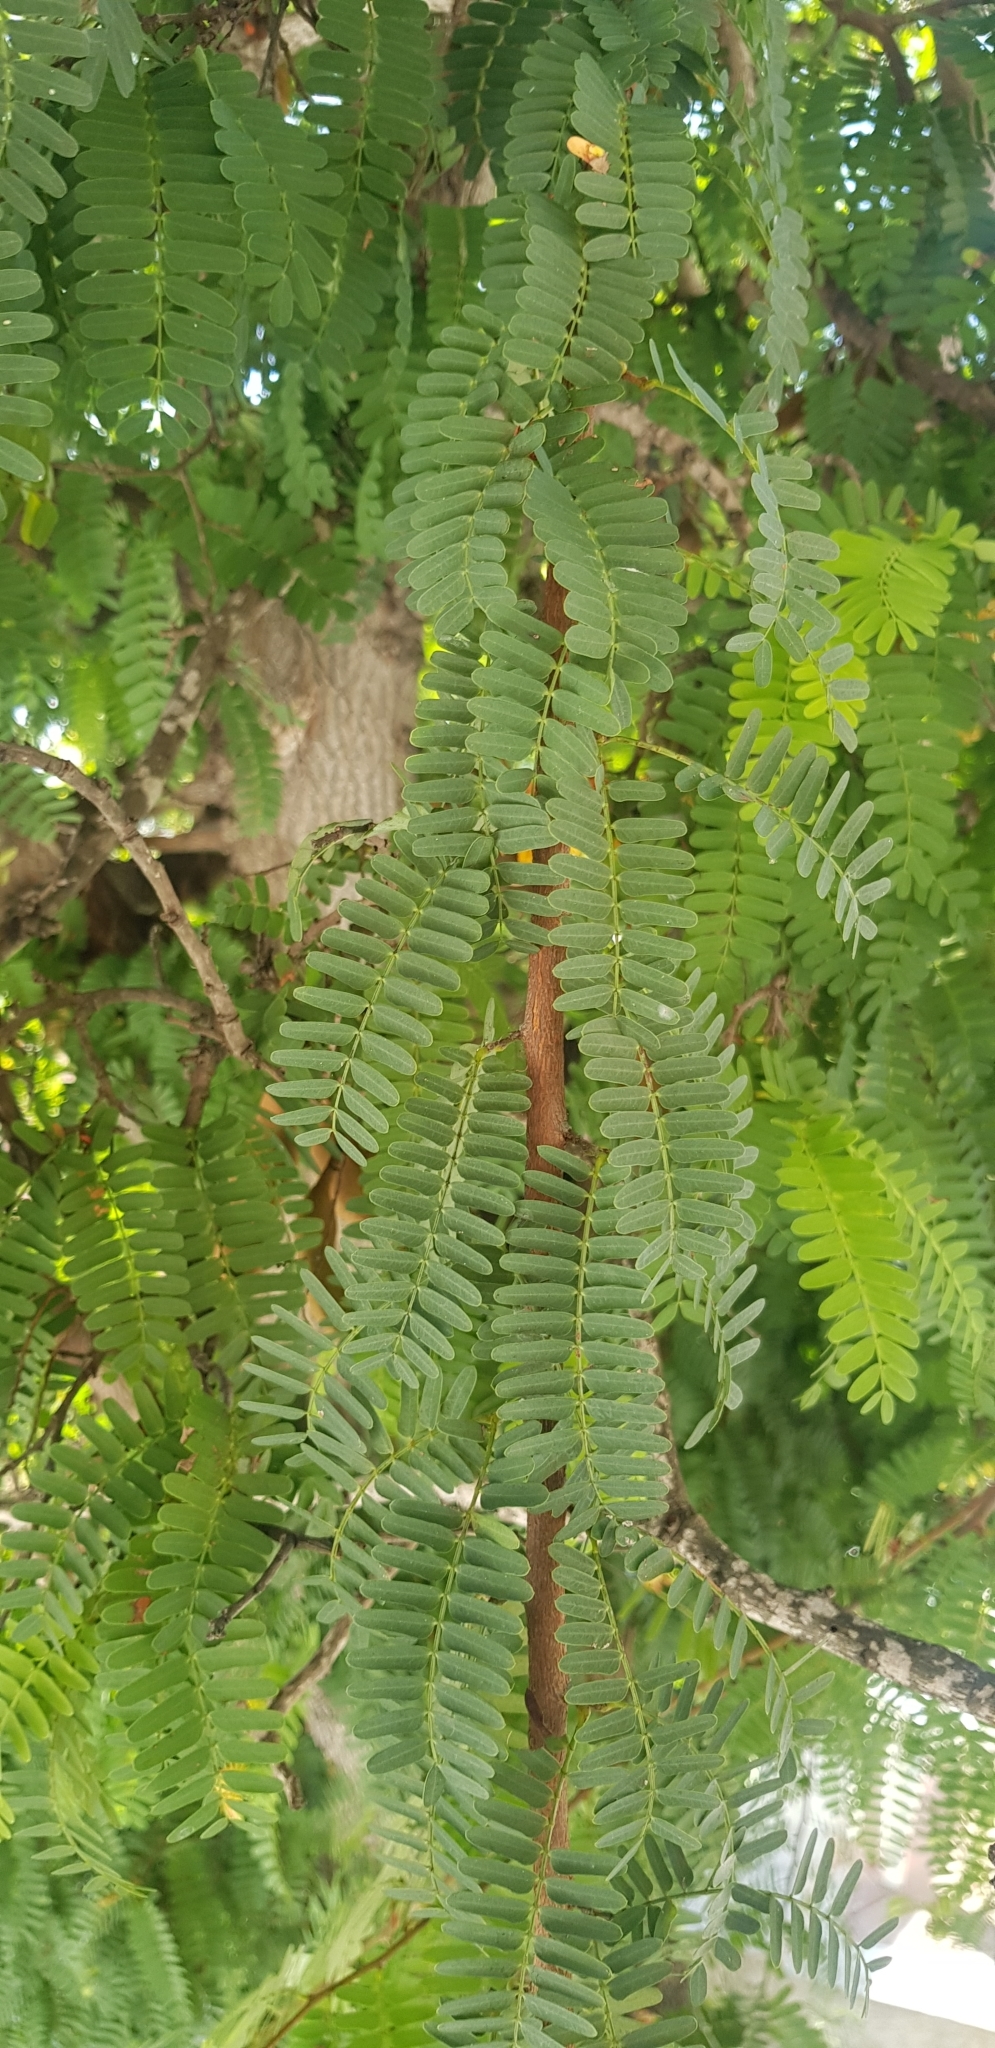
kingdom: Plantae
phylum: Tracheophyta
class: Magnoliopsida
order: Fabales
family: Fabaceae
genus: Tamarindus
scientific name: Tamarindus indica
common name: Tamarind
